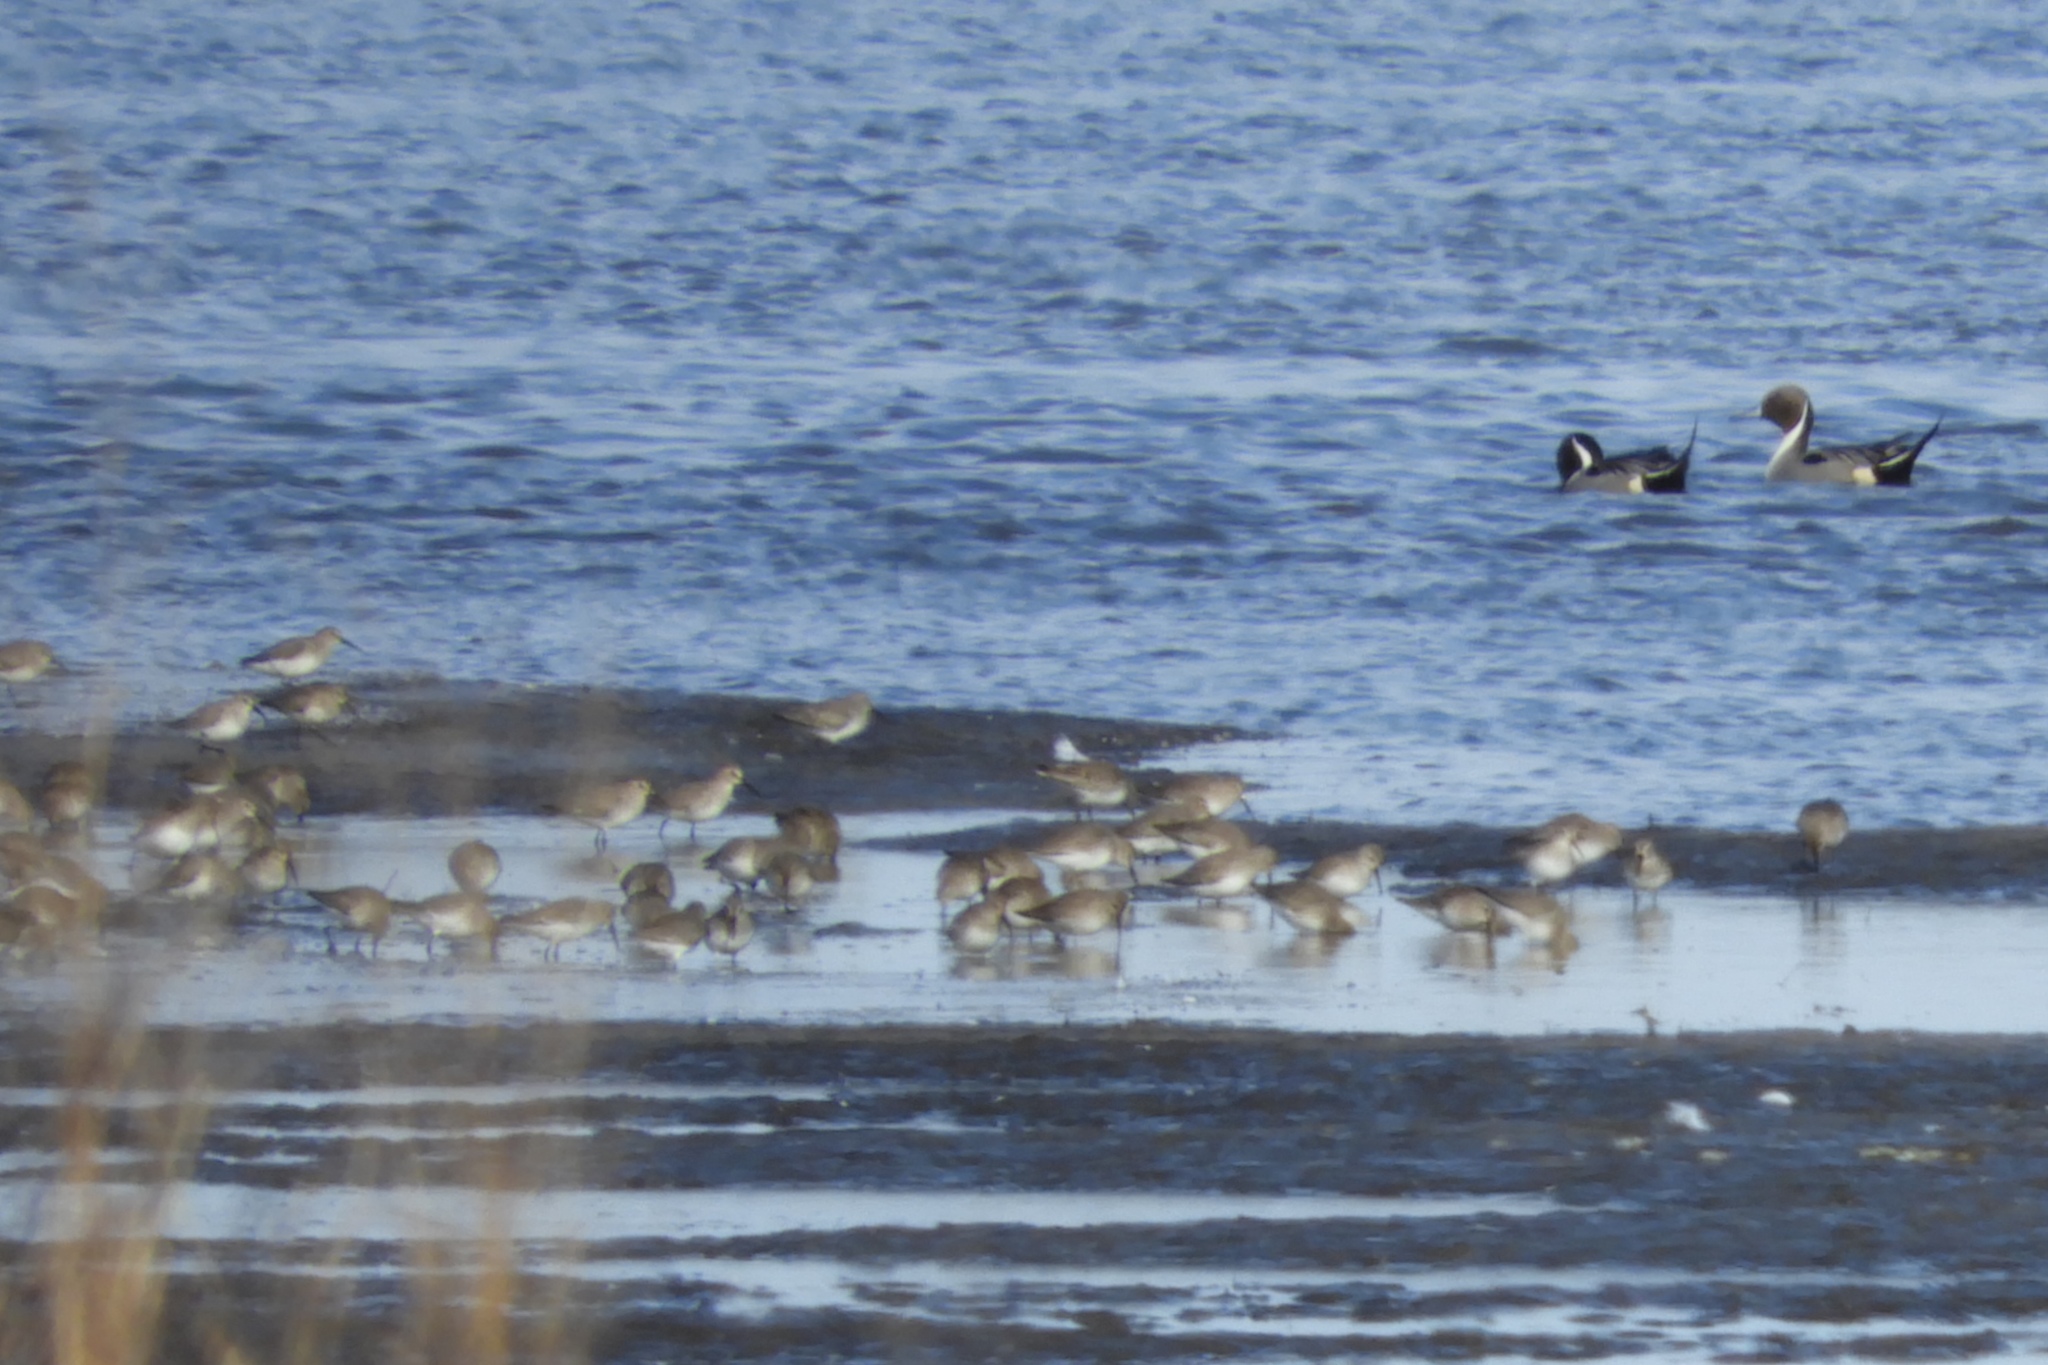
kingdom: Animalia
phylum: Chordata
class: Aves
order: Charadriiformes
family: Scolopacidae
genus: Calidris
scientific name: Calidris alpina
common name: Dunlin
